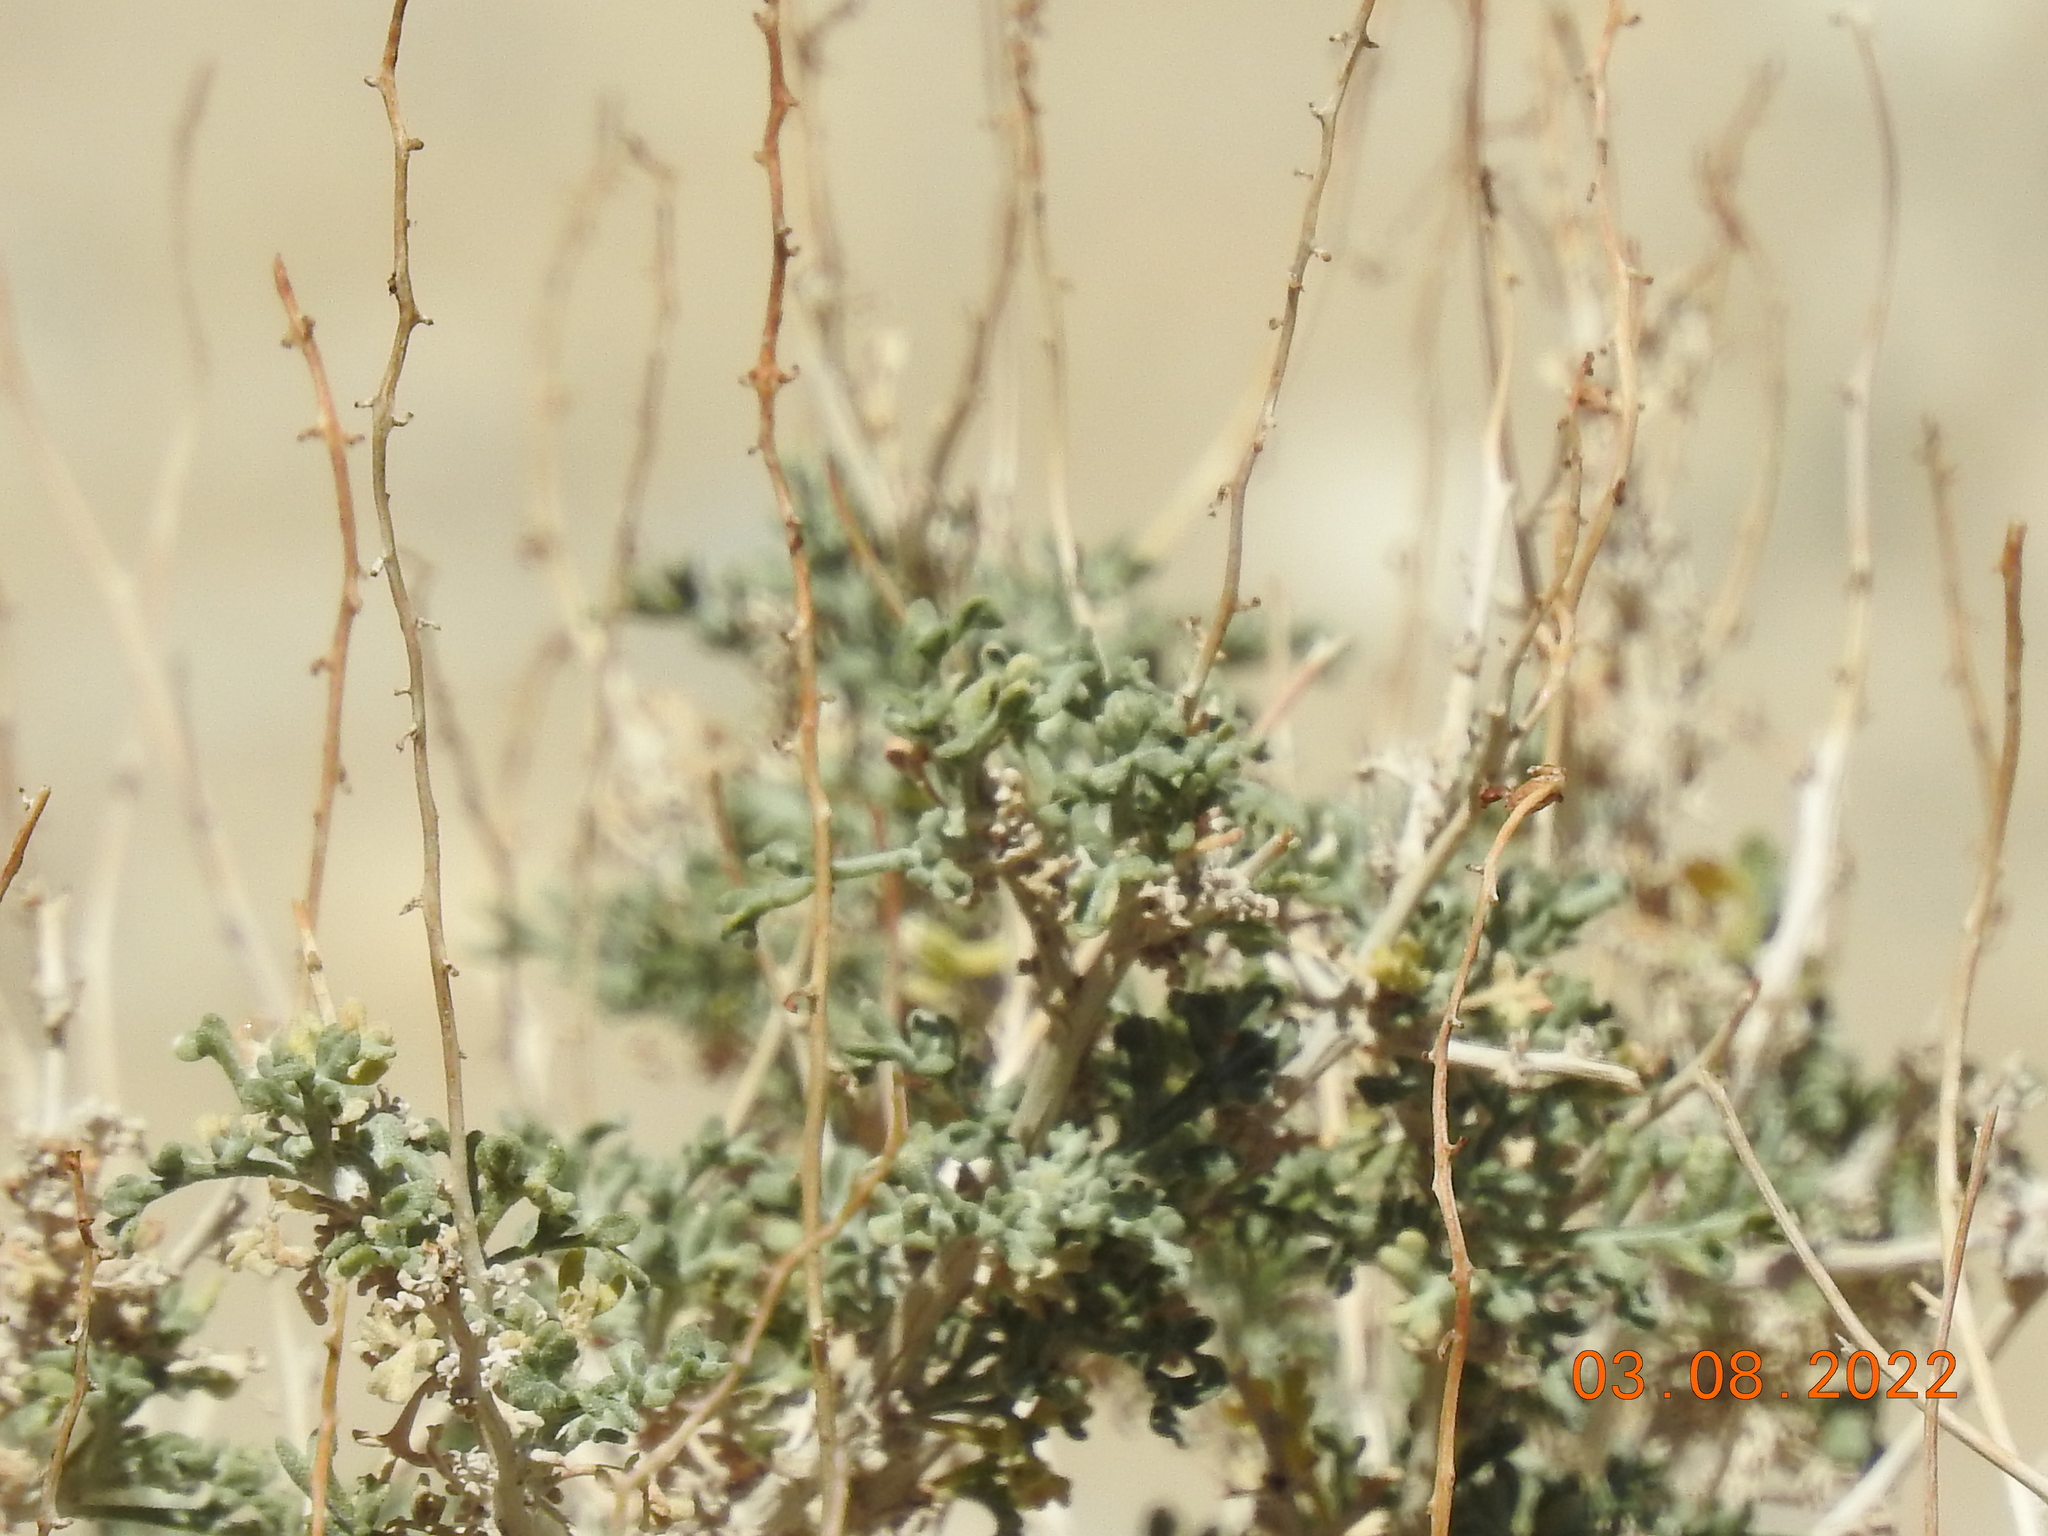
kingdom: Plantae
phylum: Tracheophyta
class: Magnoliopsida
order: Asterales
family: Asteraceae
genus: Ambrosia
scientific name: Ambrosia dumosa
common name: Bur-sage
